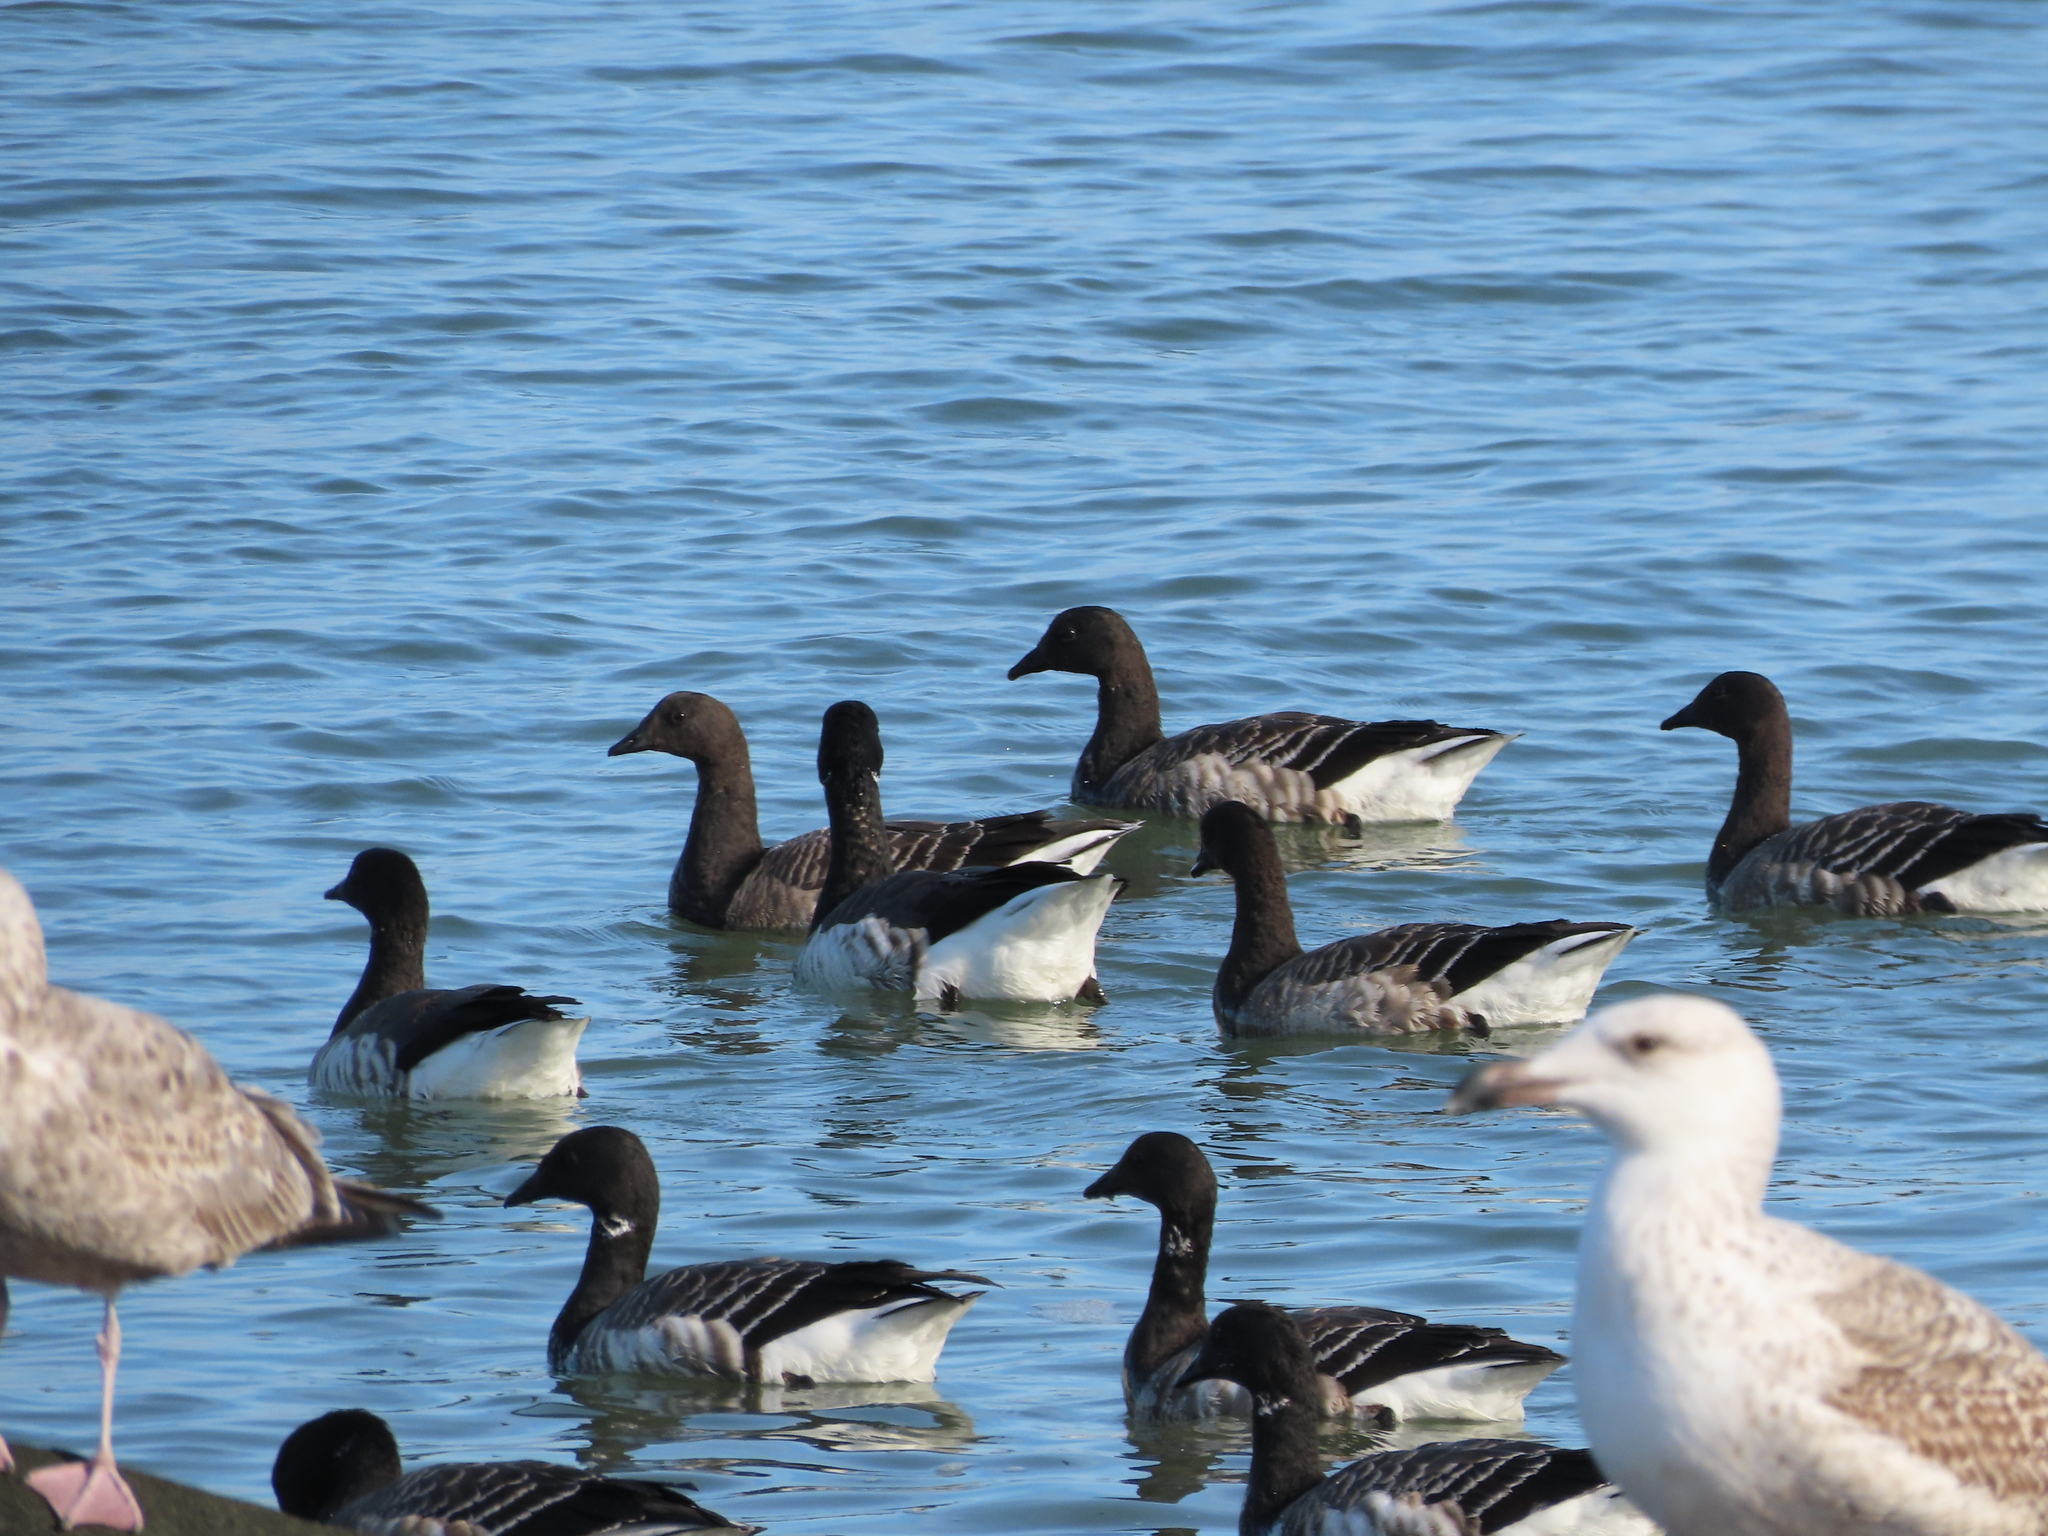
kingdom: Animalia
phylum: Chordata
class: Aves
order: Anseriformes
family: Anatidae
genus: Branta
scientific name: Branta bernicla
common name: Brant goose
